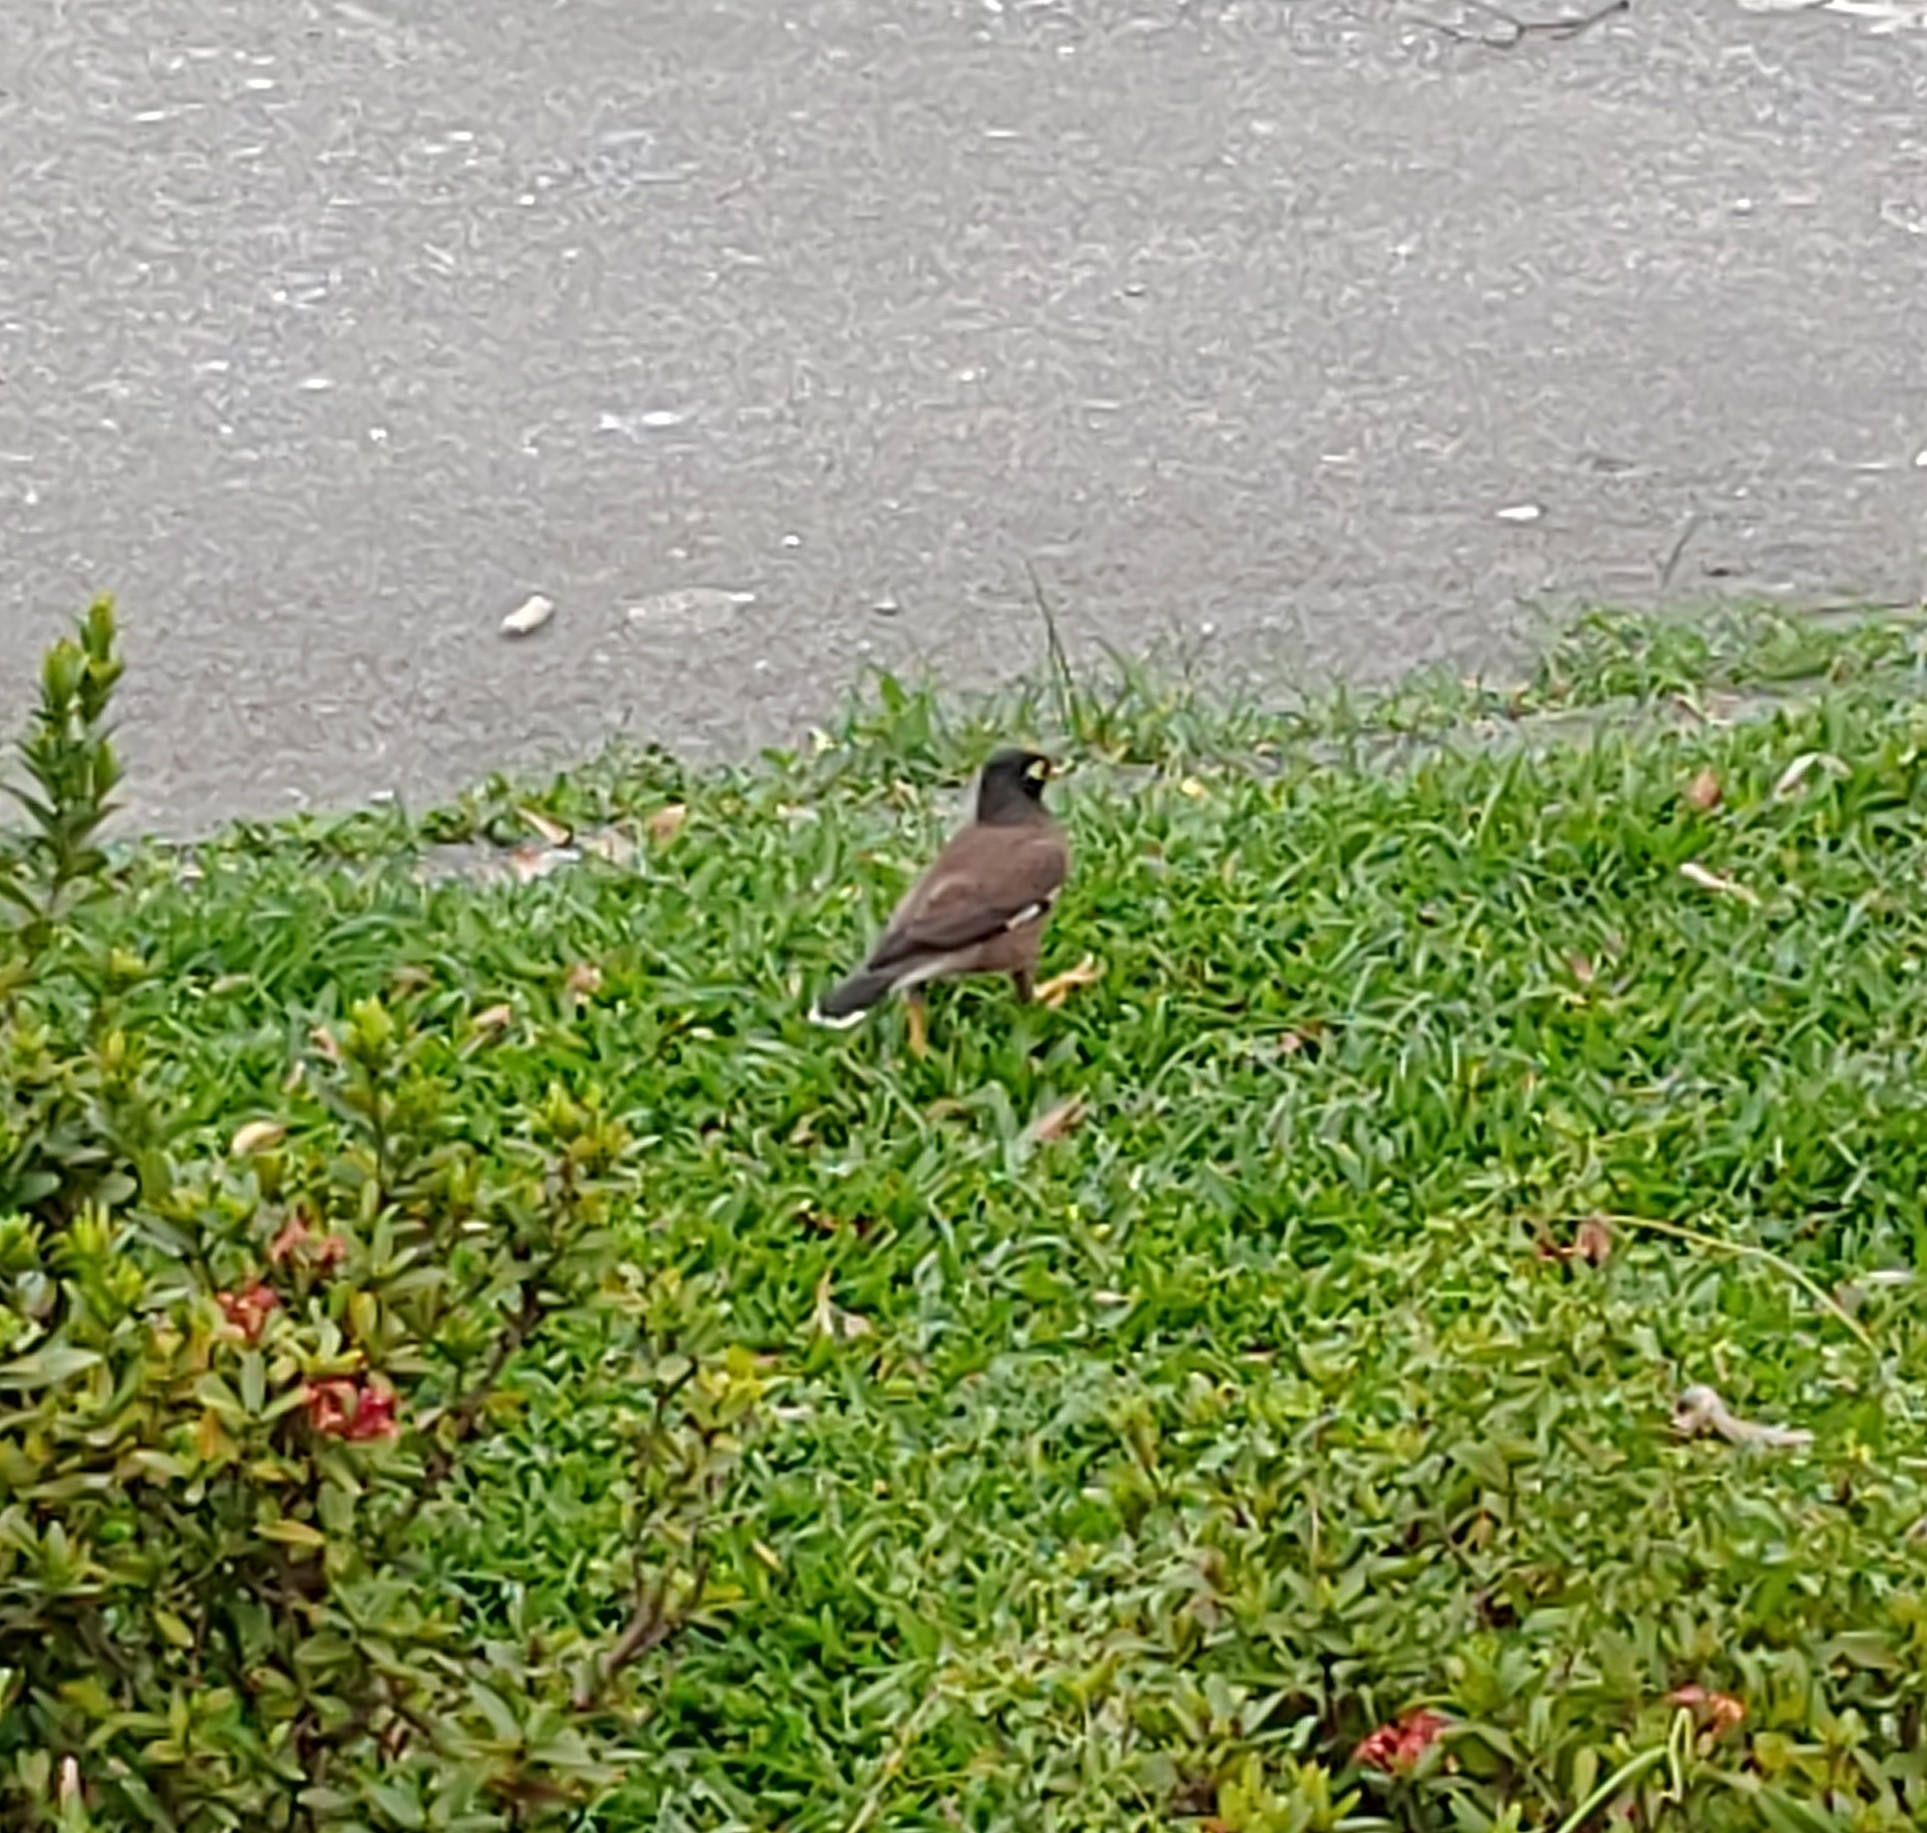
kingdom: Animalia
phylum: Chordata
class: Aves
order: Passeriformes
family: Sturnidae
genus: Acridotheres
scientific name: Acridotheres tristis
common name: Common myna
